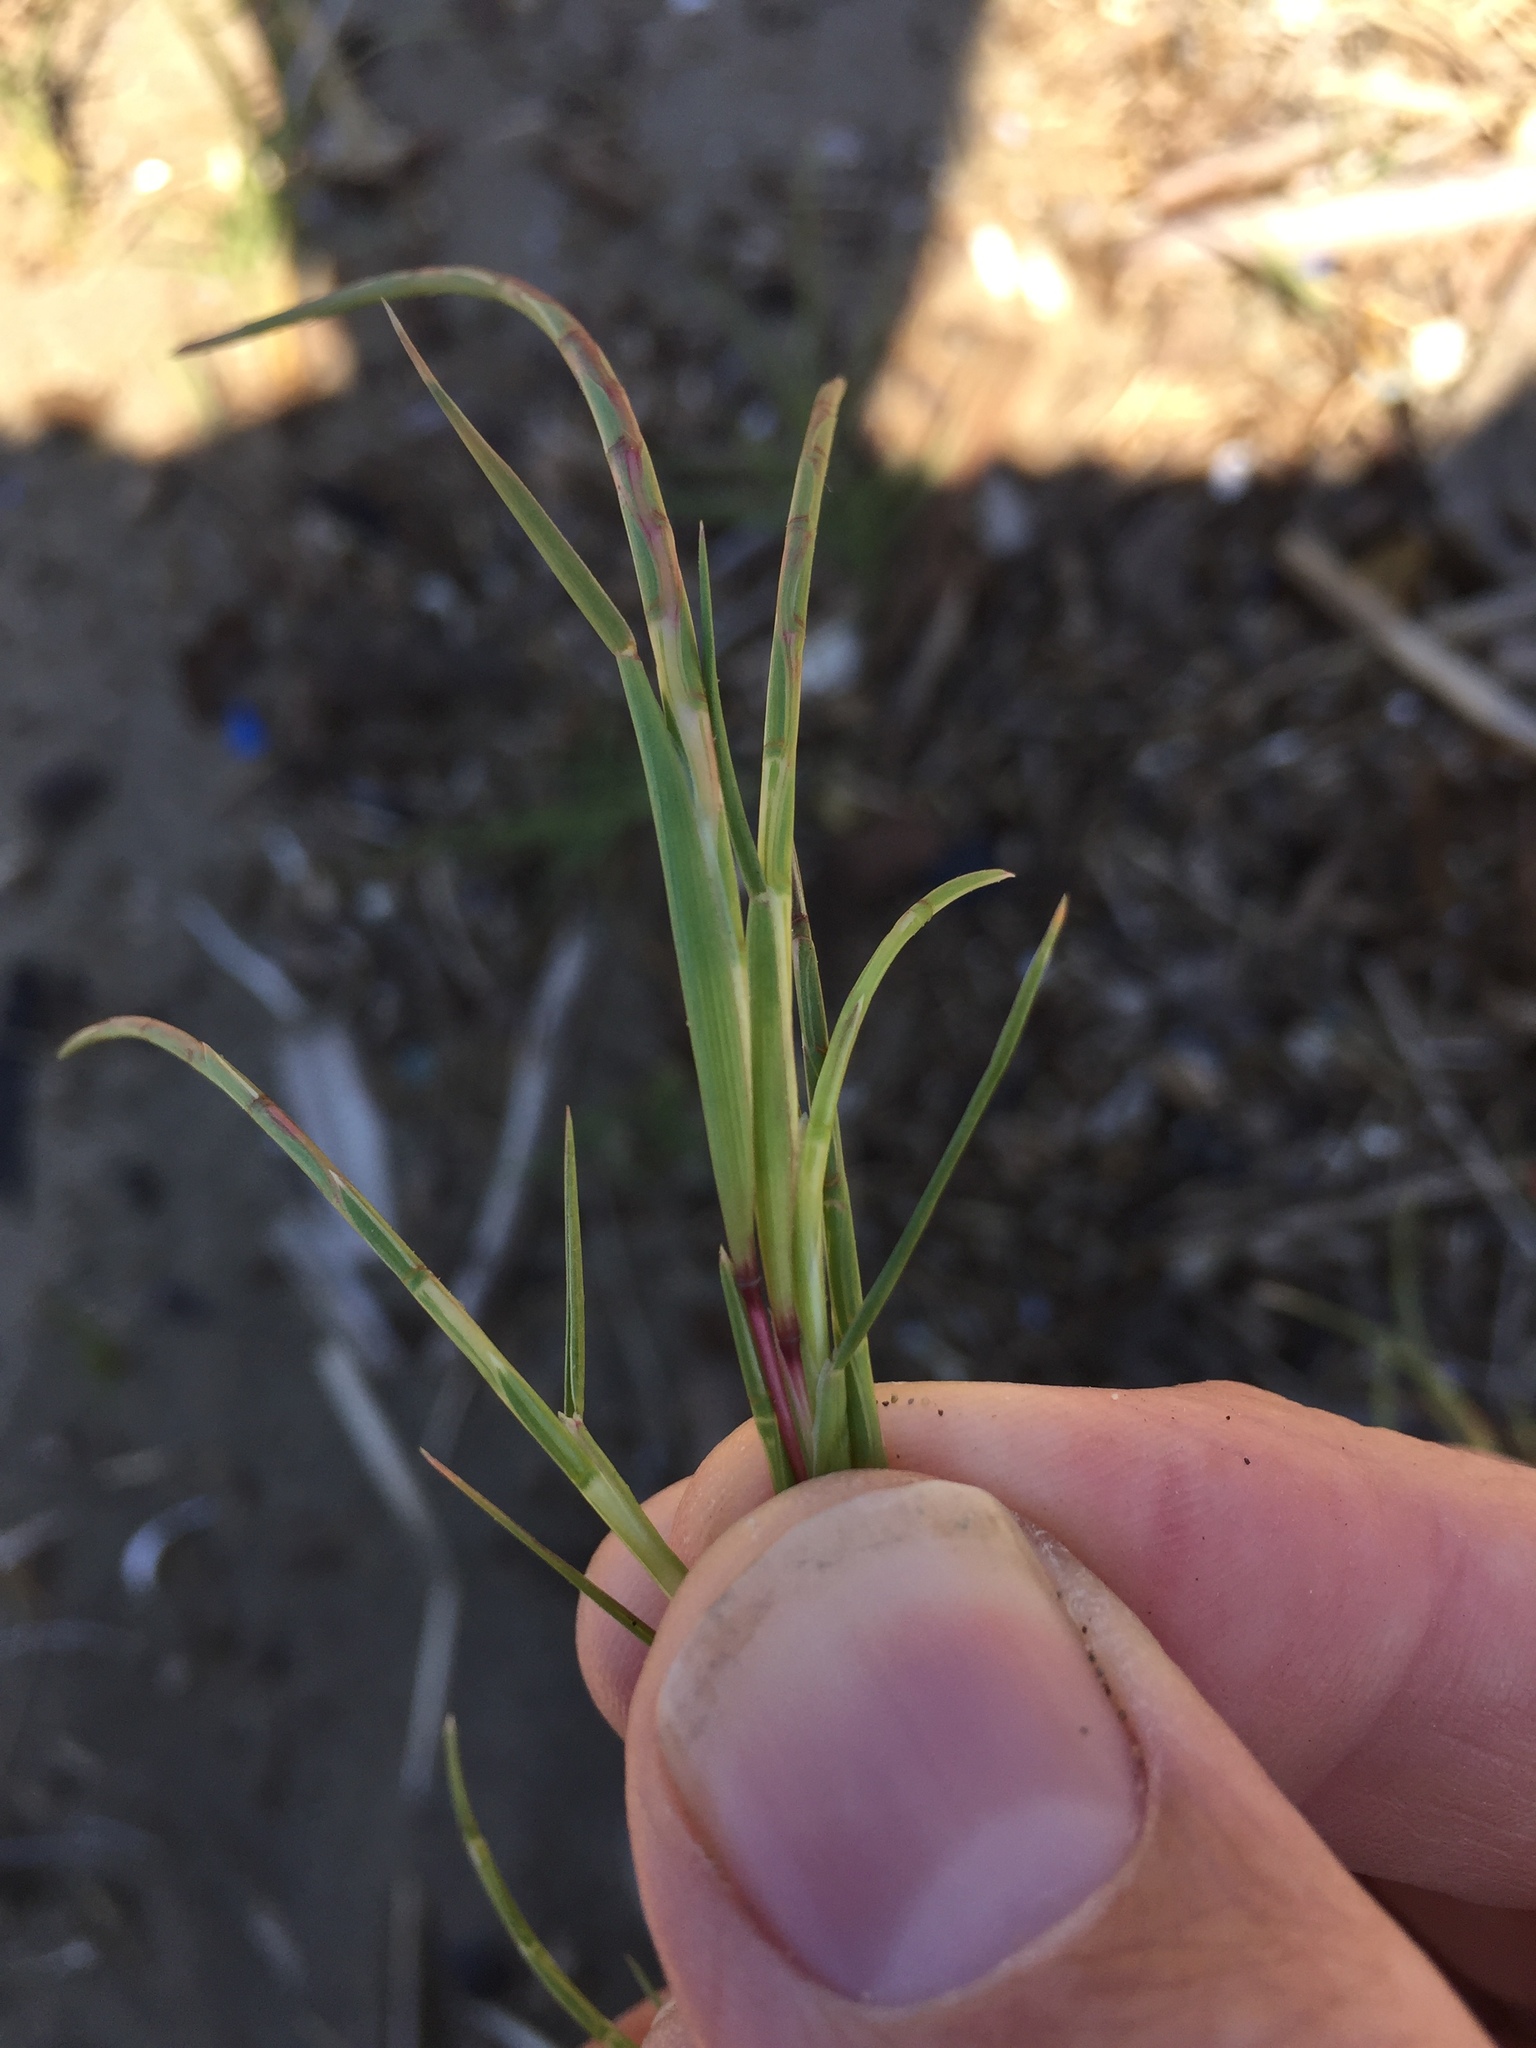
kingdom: Plantae
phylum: Tracheophyta
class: Liliopsida
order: Poales
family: Poaceae
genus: Parapholis
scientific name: Parapholis incurva
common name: Curved sicklegrass
